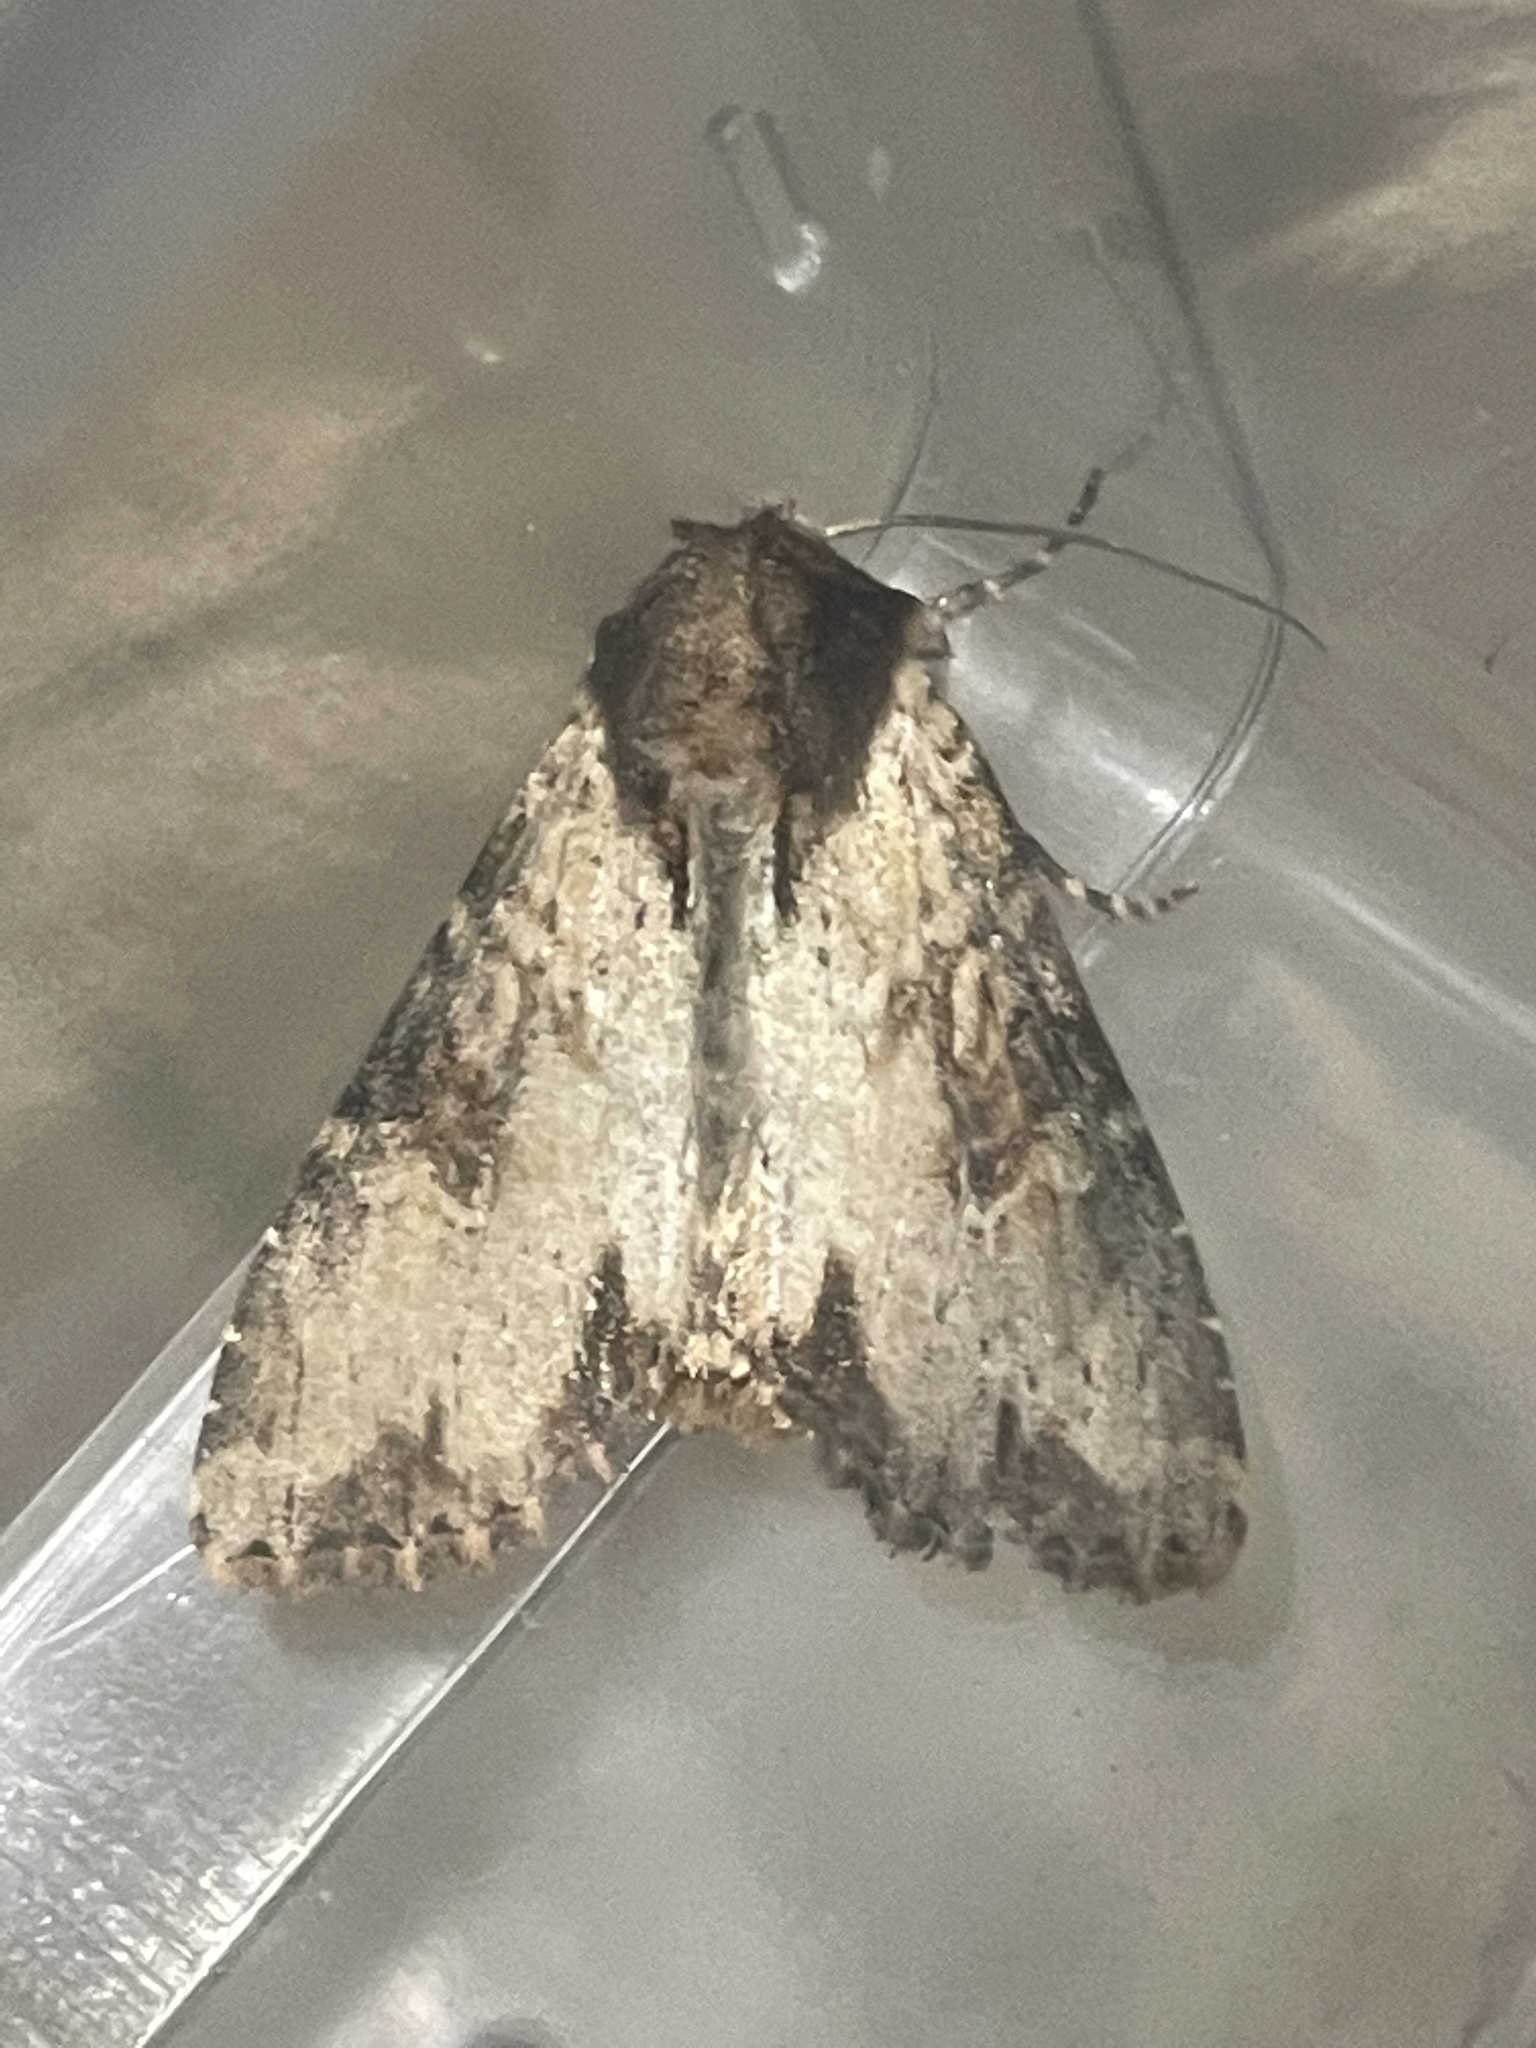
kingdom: Animalia
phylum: Arthropoda
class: Insecta
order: Lepidoptera
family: Noctuidae
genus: Apamea
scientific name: Apamea crenata
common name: Clouded-bordered brindle
